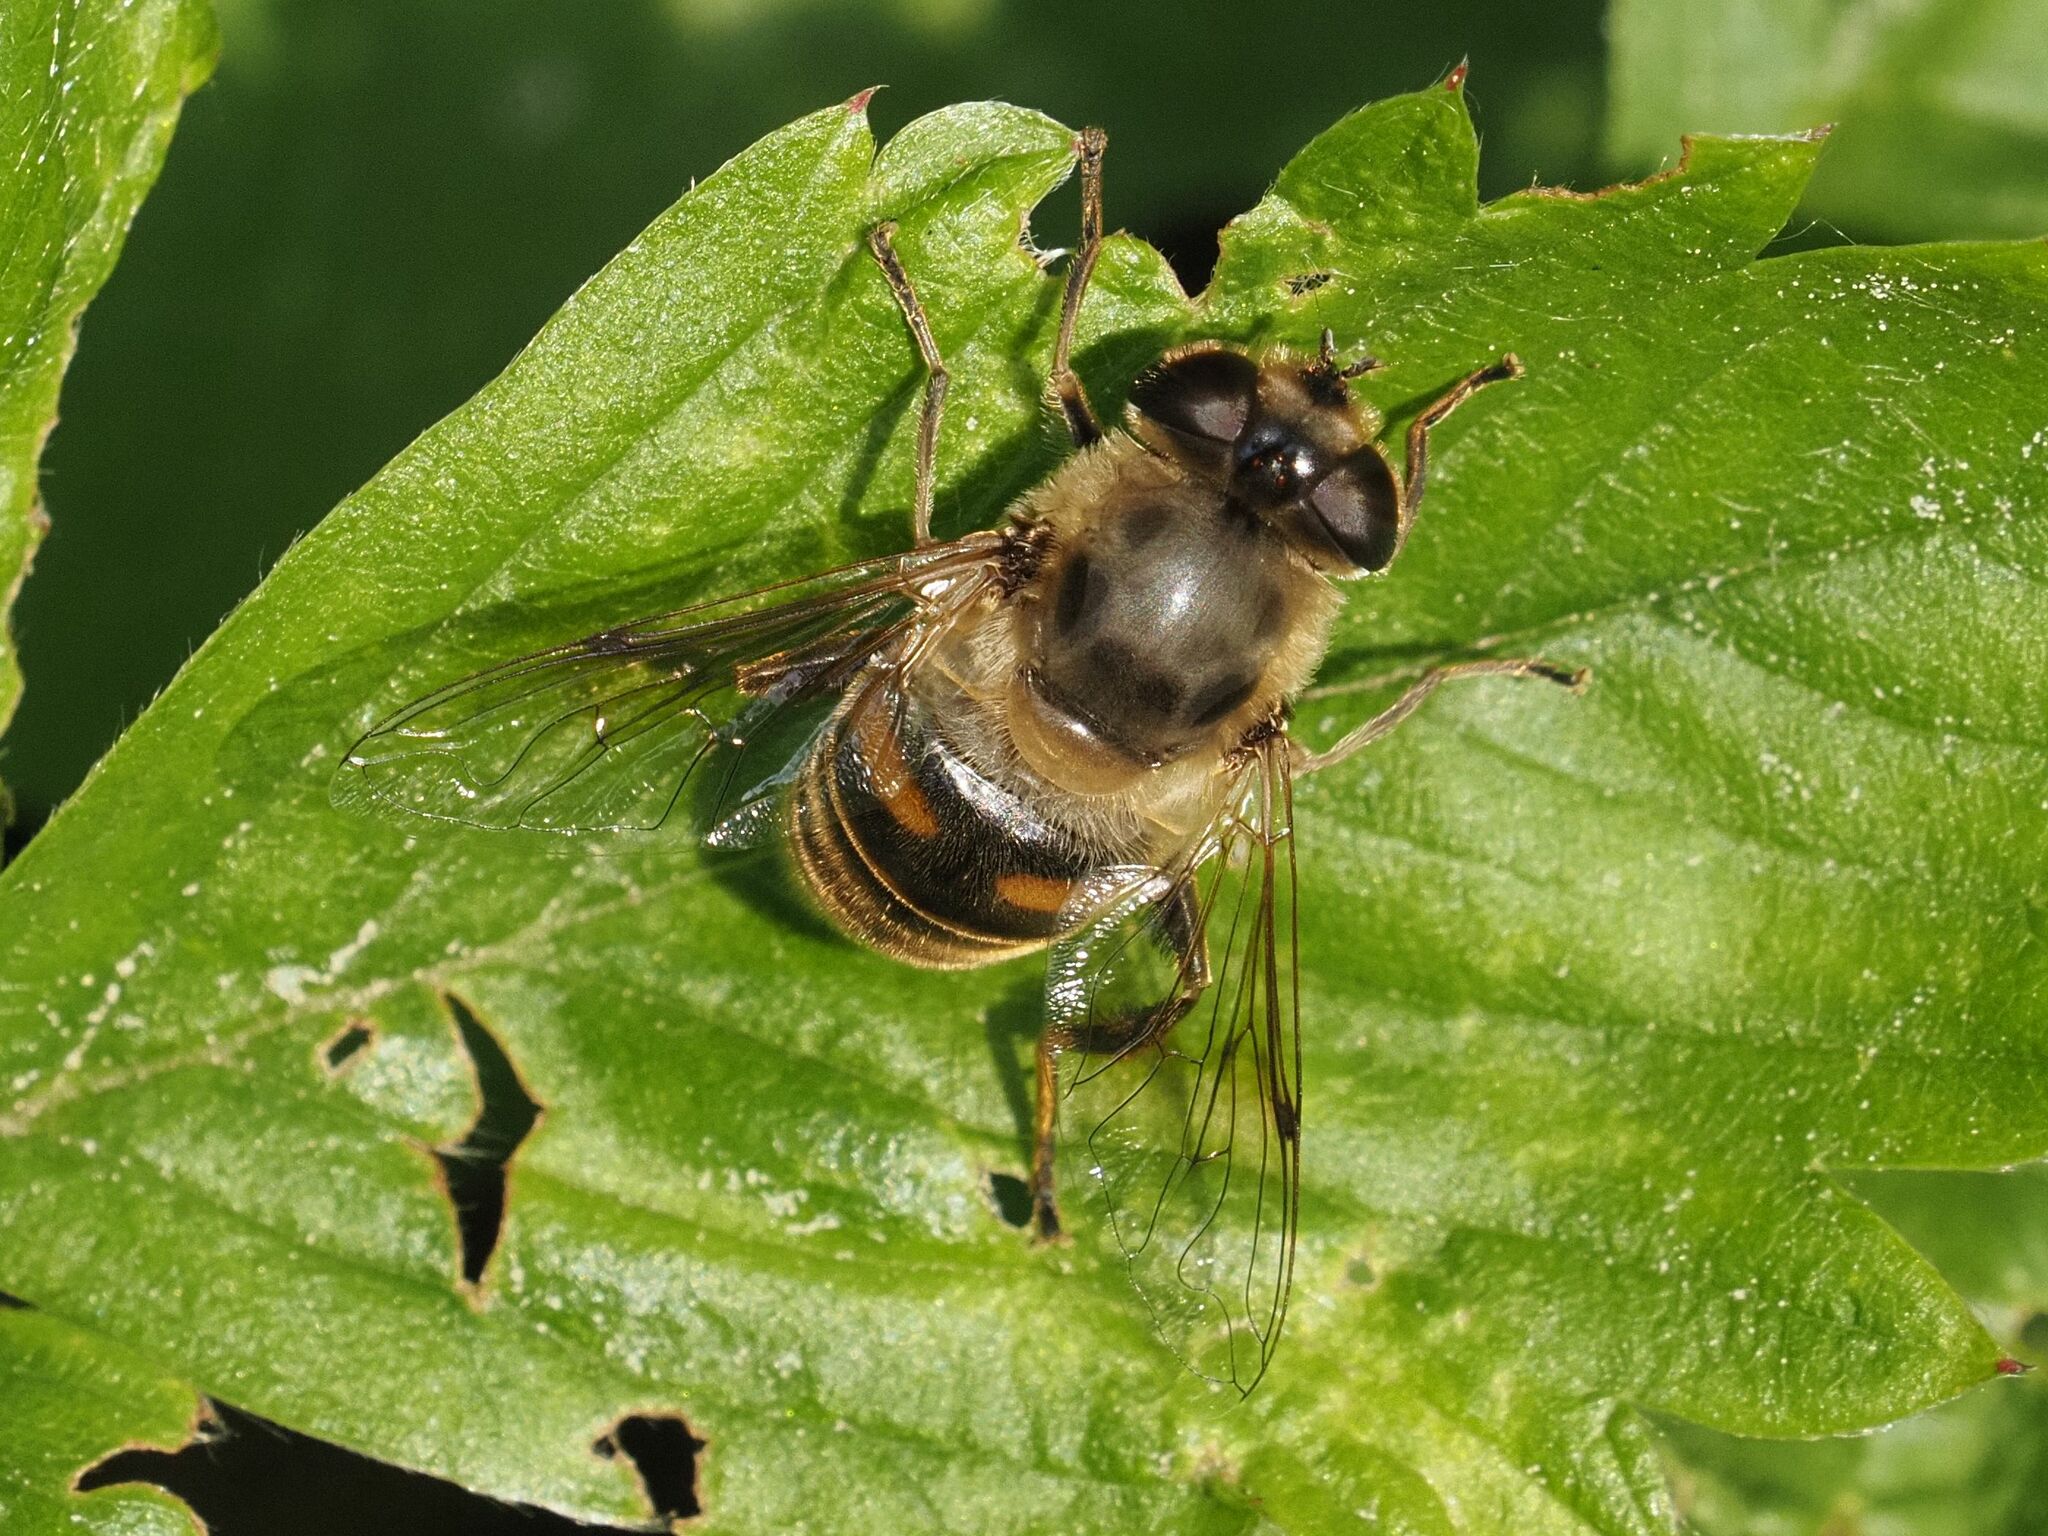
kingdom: Animalia
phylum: Arthropoda
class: Insecta
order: Diptera
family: Syrphidae
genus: Eristalis
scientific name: Eristalis tenax
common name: Drone fly
